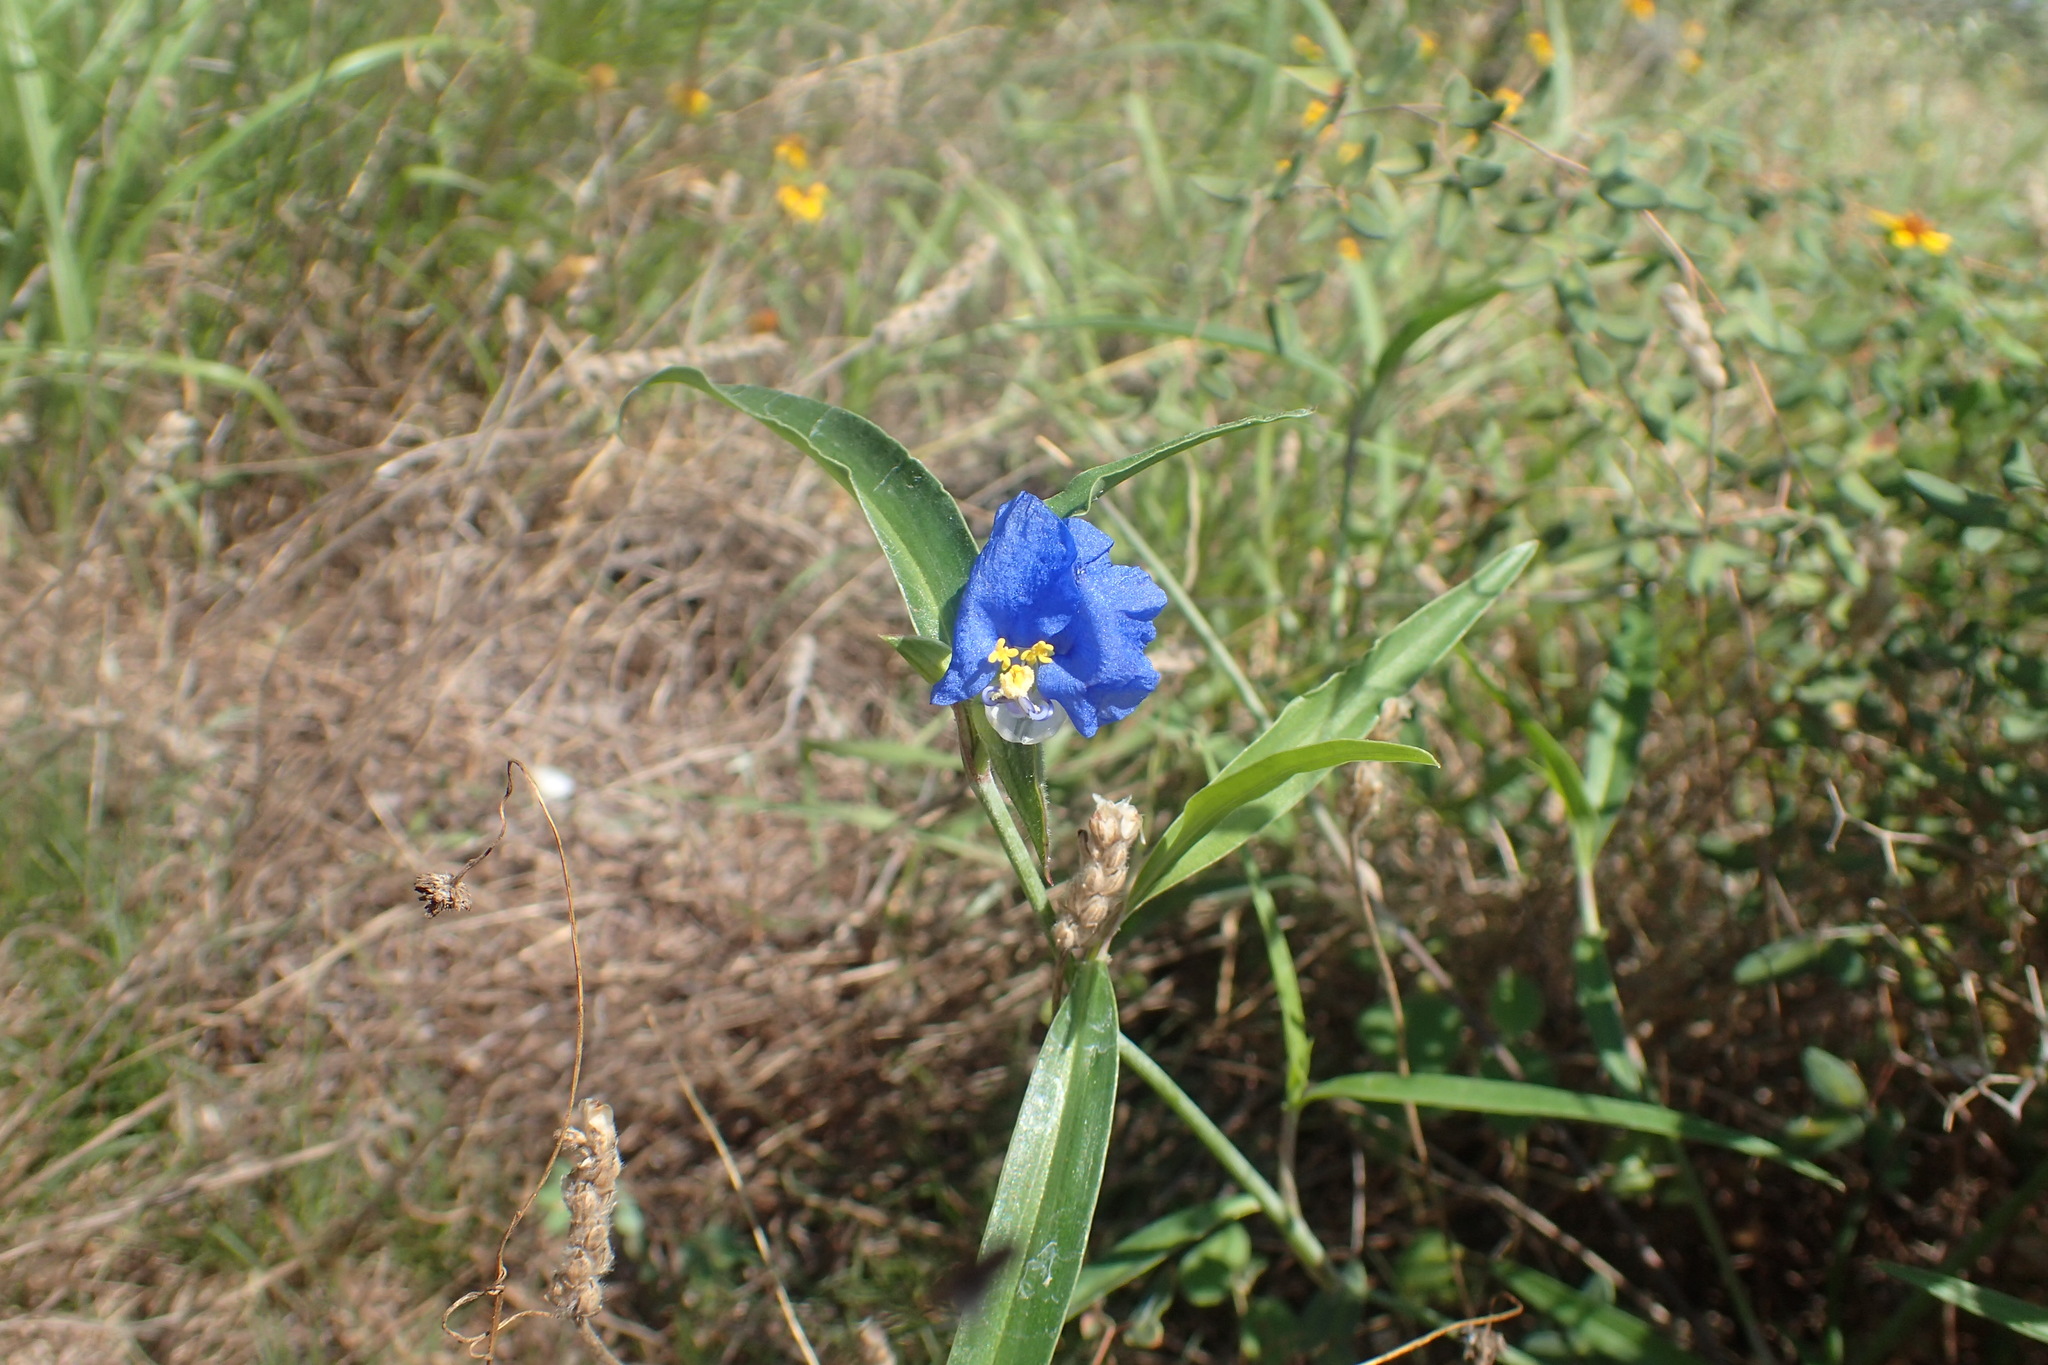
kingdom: Plantae
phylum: Tracheophyta
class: Liliopsida
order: Commelinales
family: Commelinaceae
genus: Commelina
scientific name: Commelina erecta
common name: Blousel blommetjie
